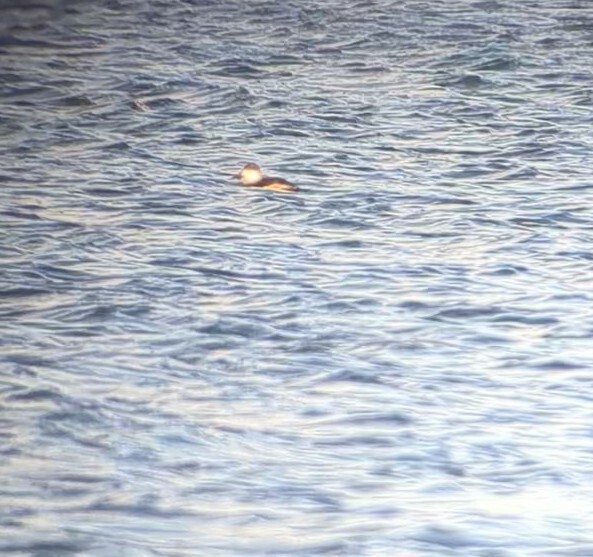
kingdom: Animalia
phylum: Chordata
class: Aves
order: Anseriformes
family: Anatidae
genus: Oxyura
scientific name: Oxyura jamaicensis
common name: Ruddy duck
